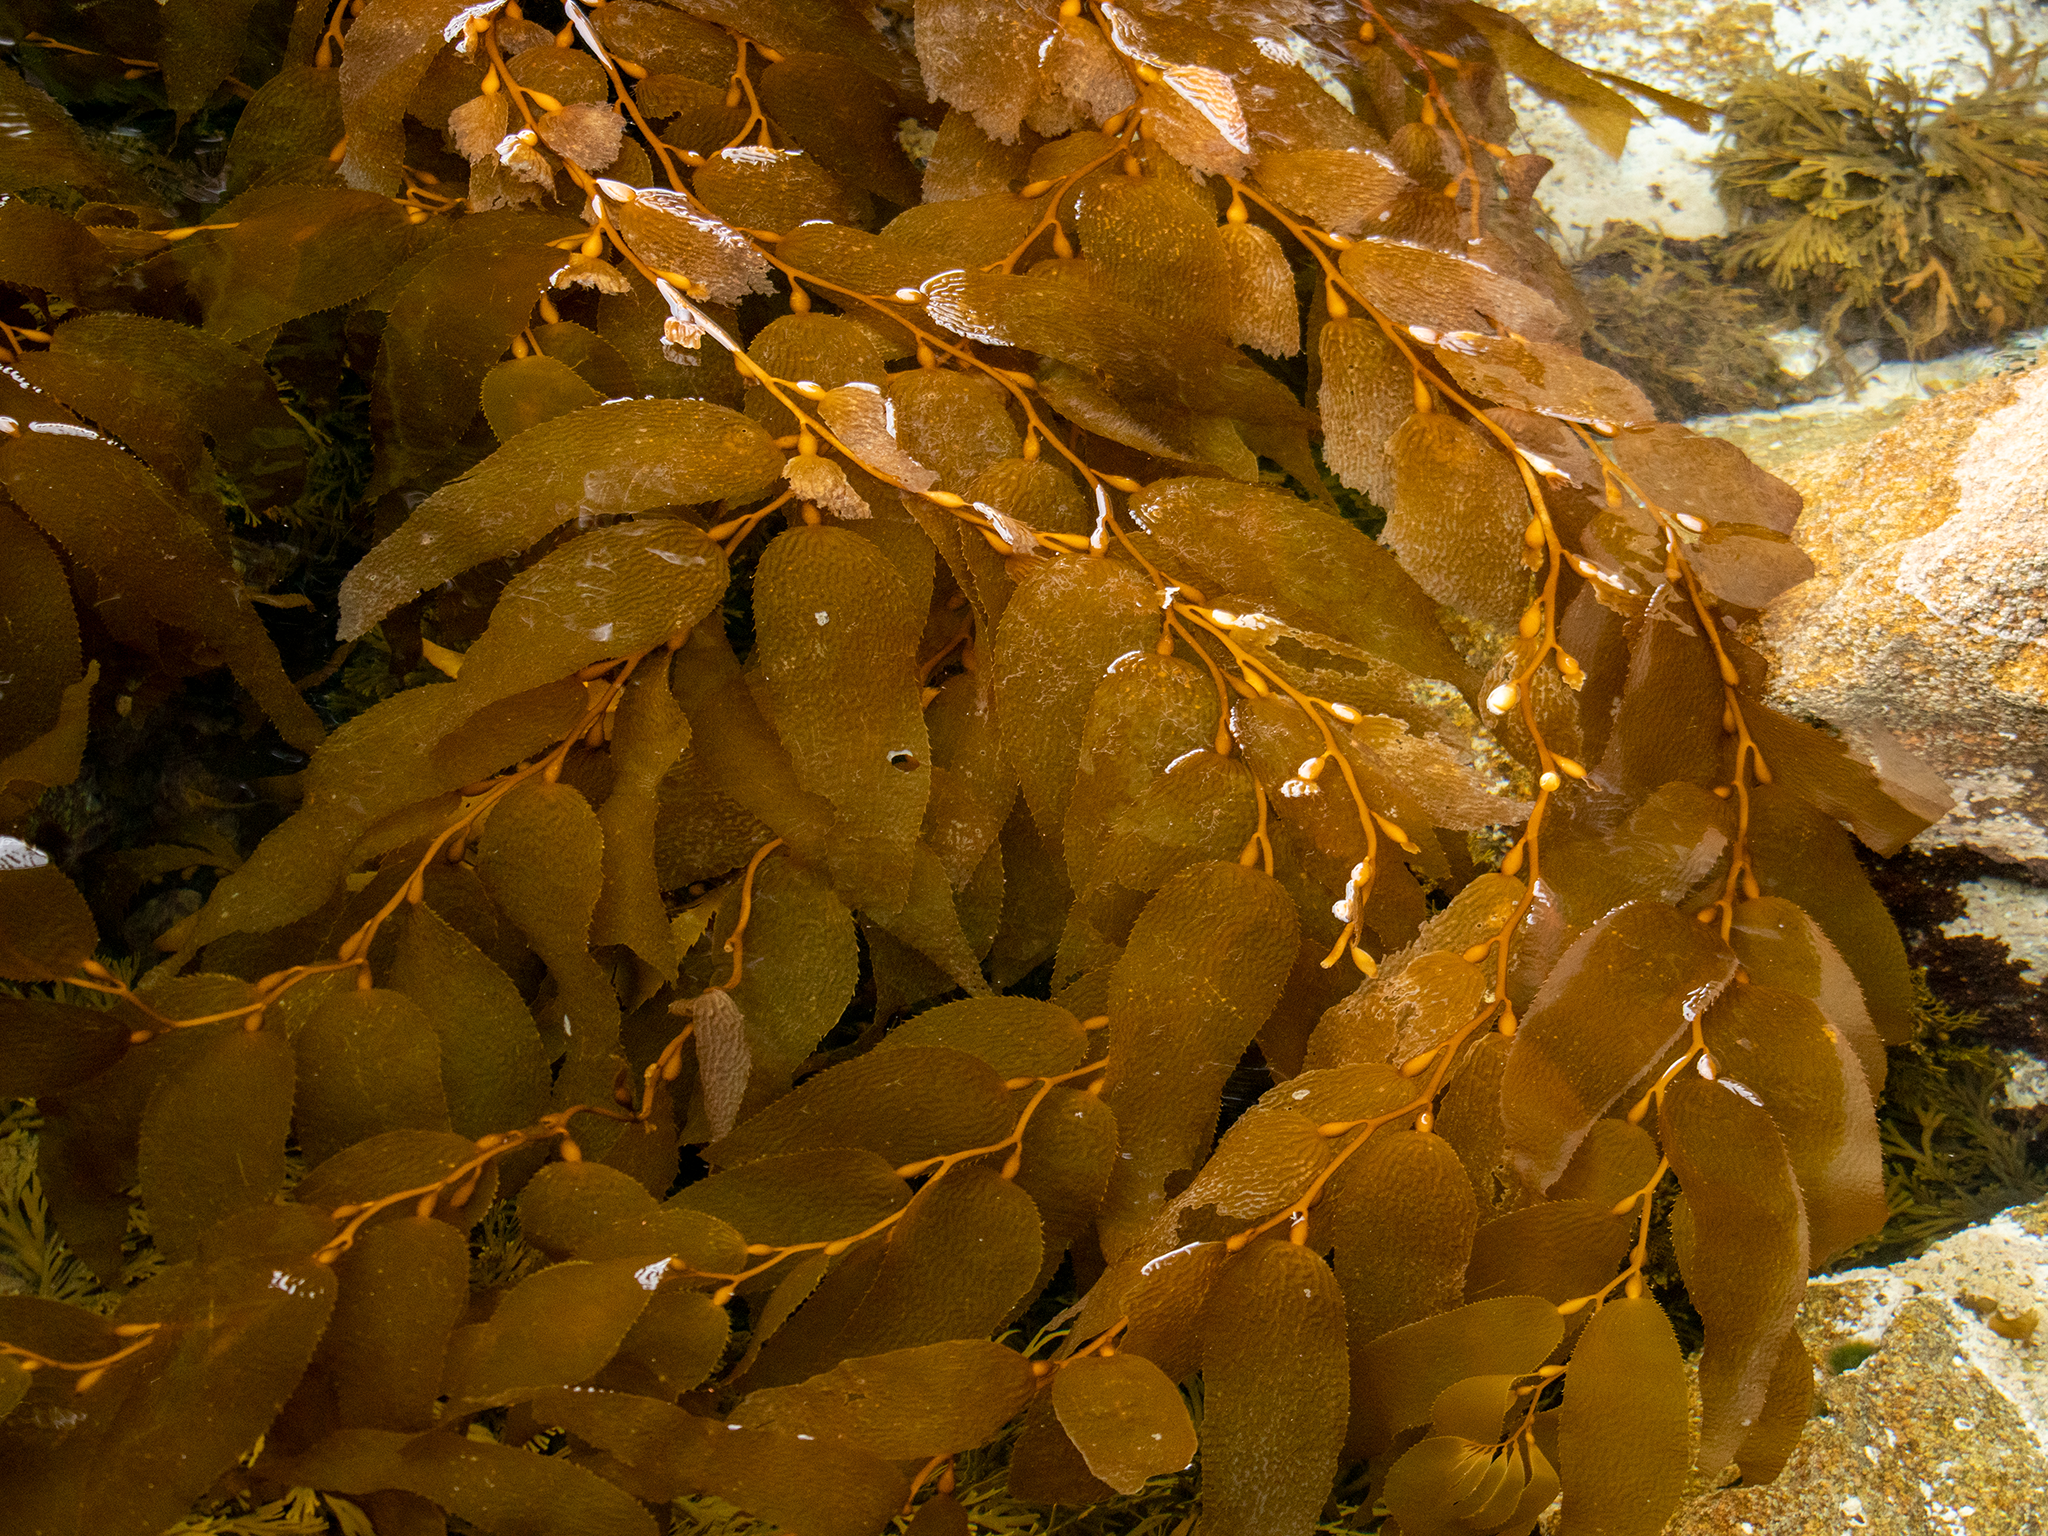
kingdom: Chromista
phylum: Ochrophyta
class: Phaeophyceae
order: Laminariales
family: Laminariaceae
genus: Macrocystis
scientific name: Macrocystis pyrifera
